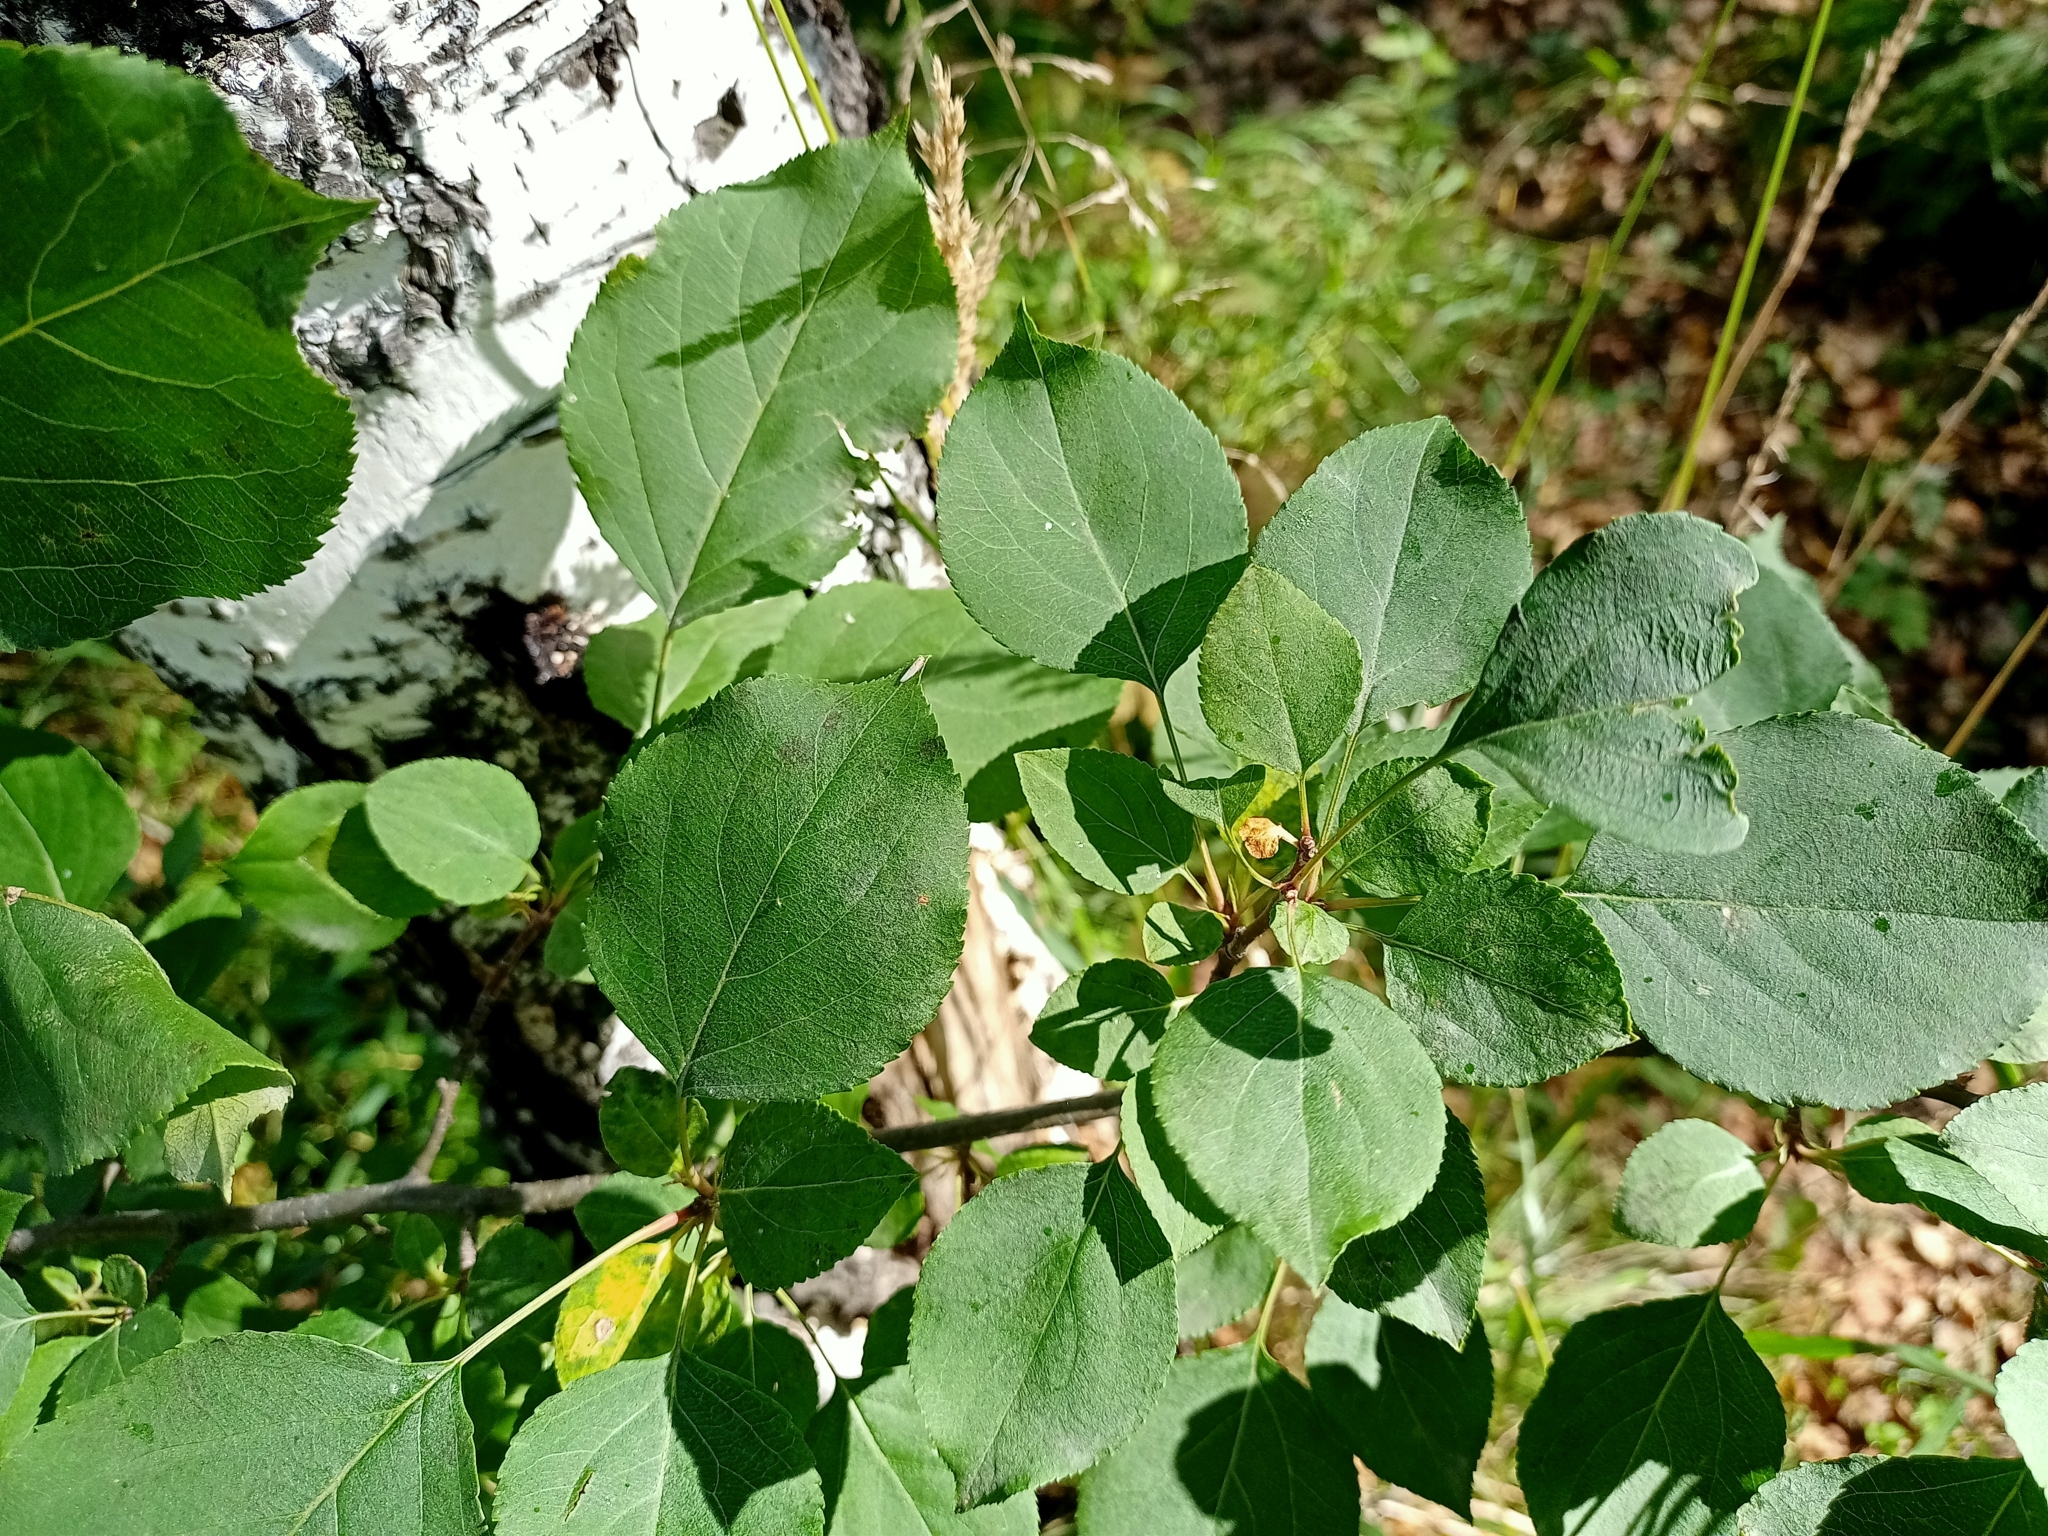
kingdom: Plantae
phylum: Tracheophyta
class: Magnoliopsida
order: Rosales
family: Rosaceae
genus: Malus
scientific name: Malus baccata
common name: Siberian crab
